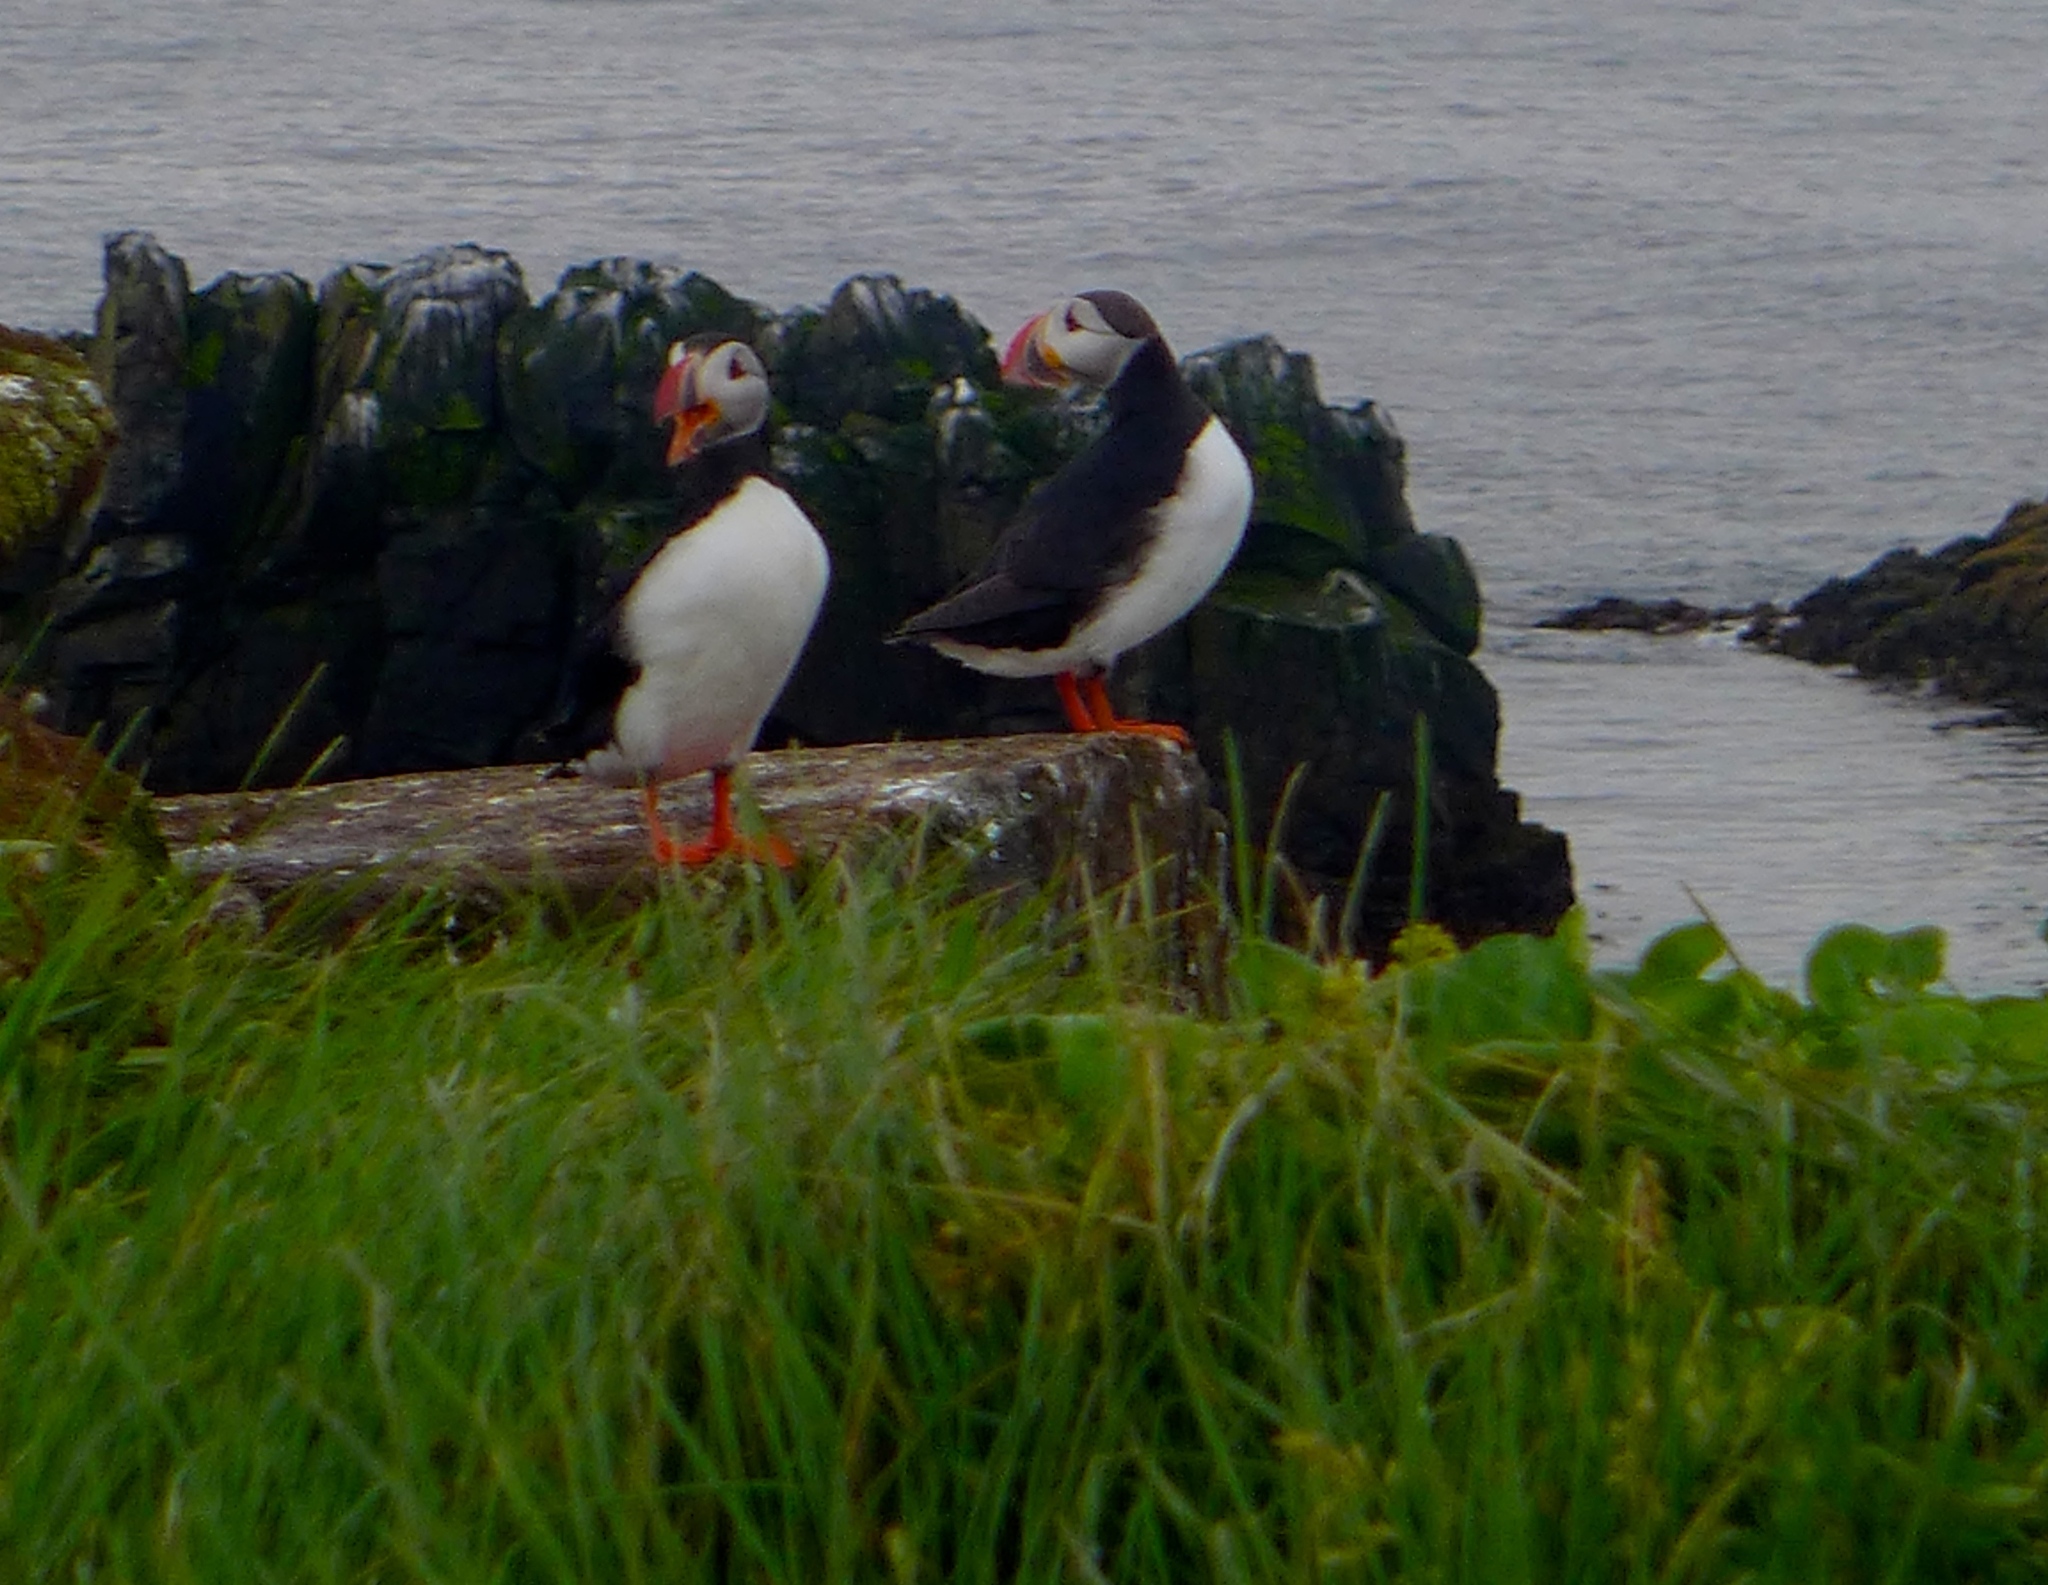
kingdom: Animalia
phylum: Chordata
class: Aves
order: Charadriiformes
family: Alcidae
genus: Fratercula
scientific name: Fratercula arctica
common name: Atlantic puffin
